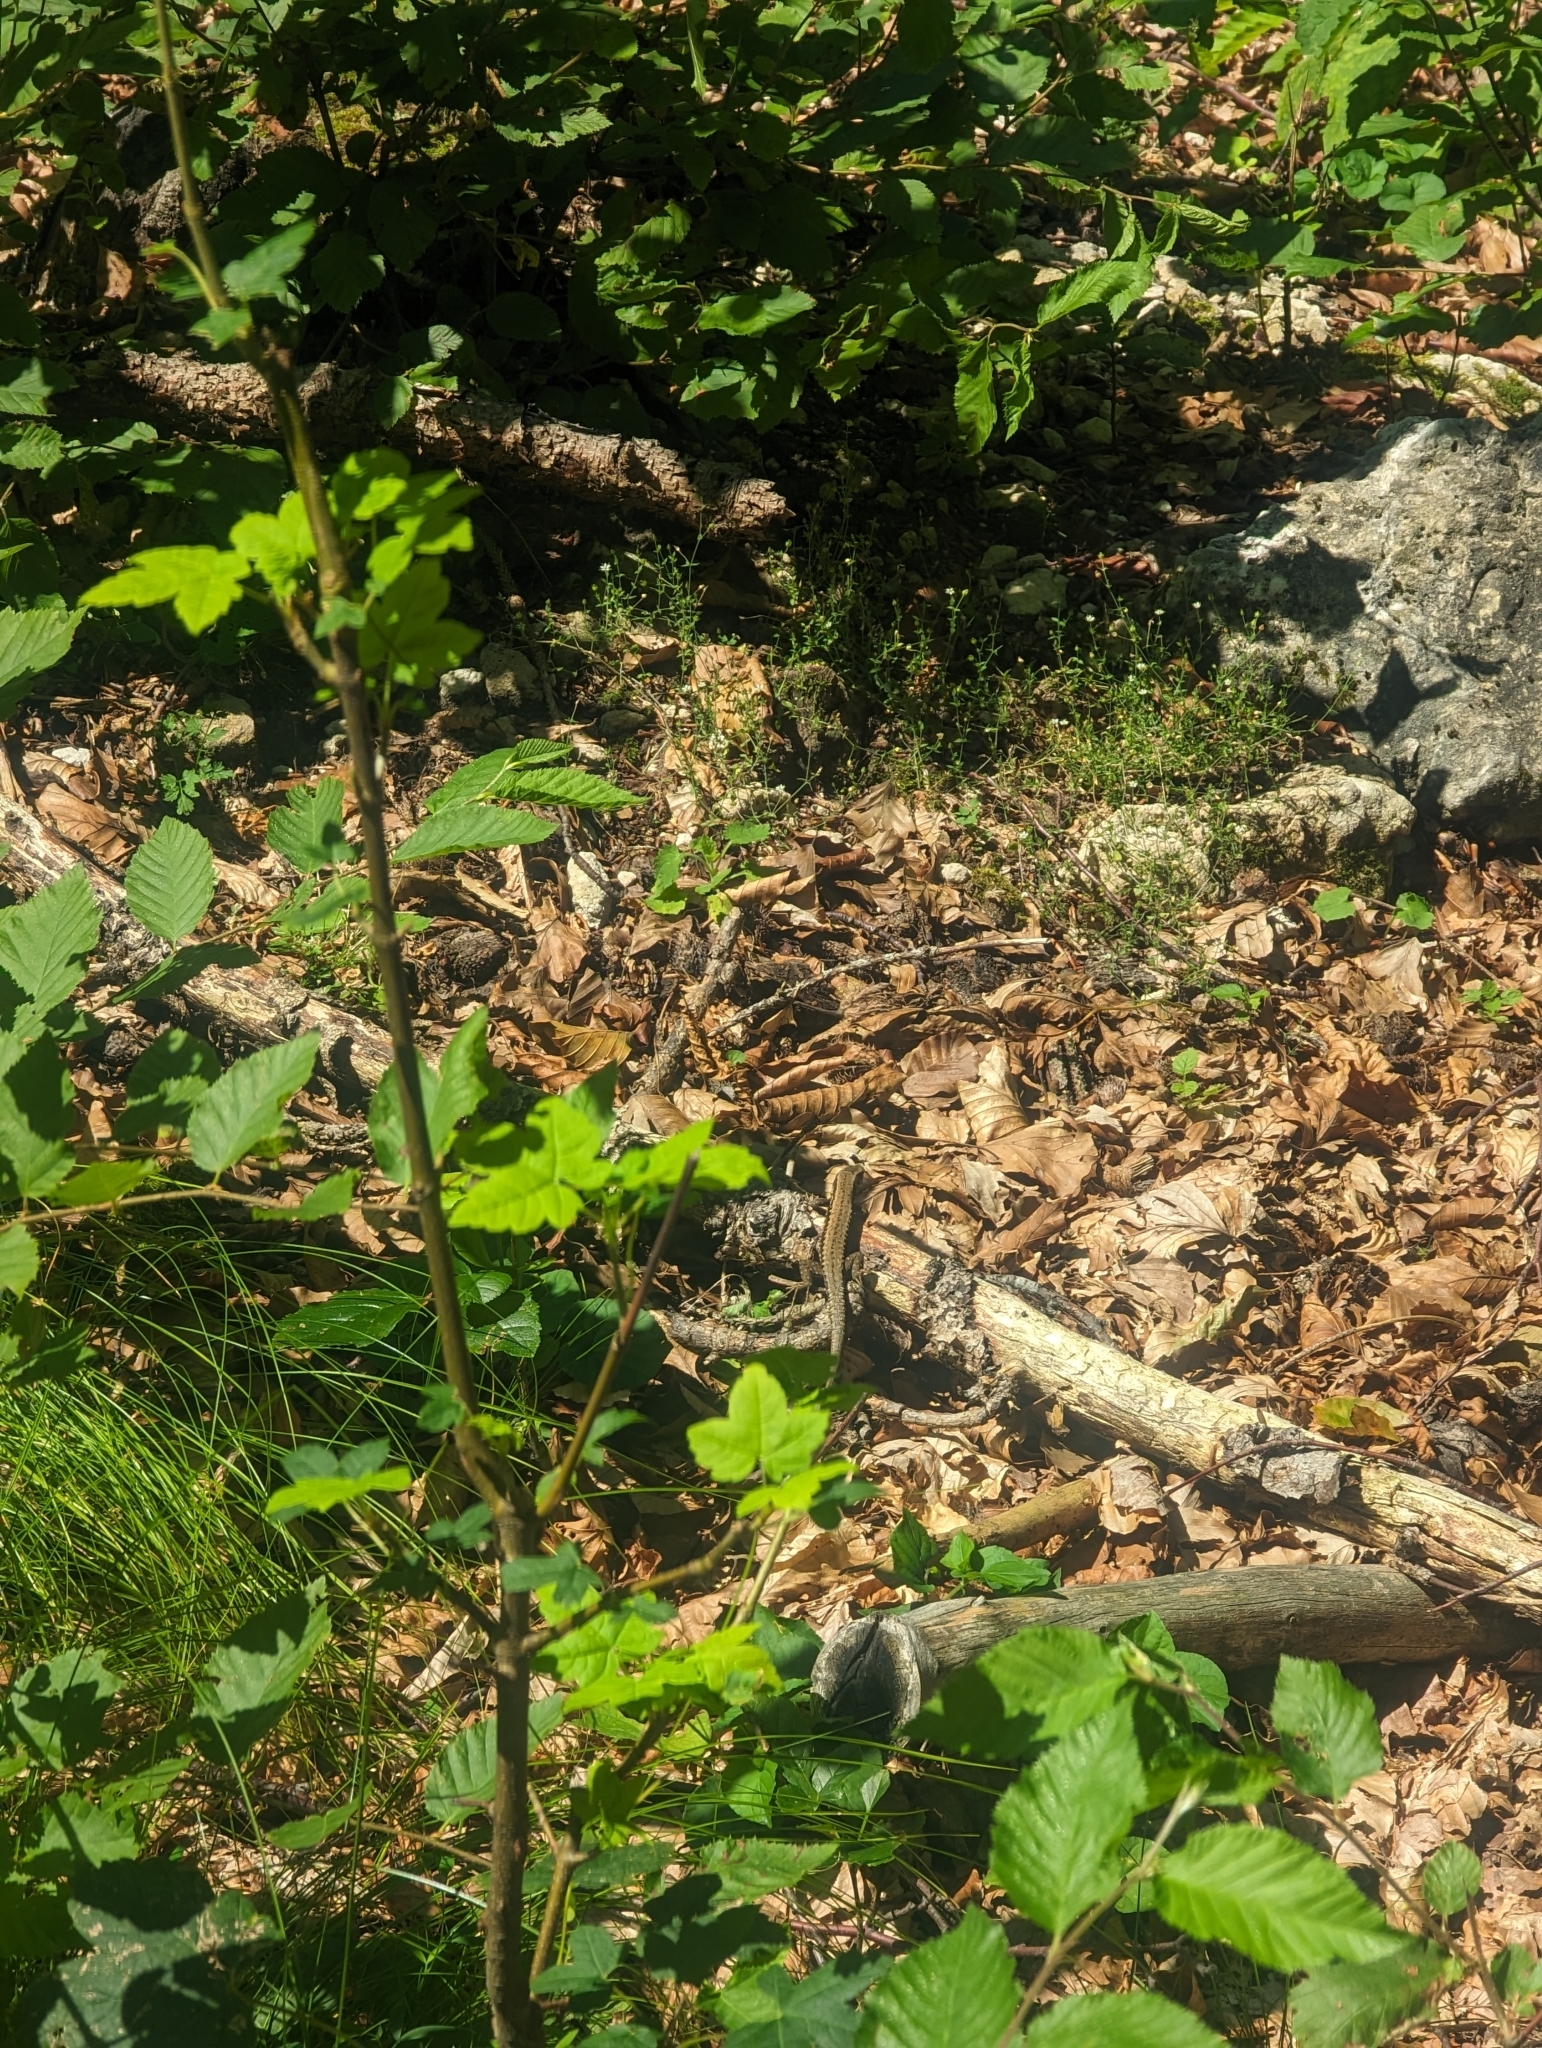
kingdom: Animalia
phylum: Chordata
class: Squamata
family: Lacertidae
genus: Podarcis
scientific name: Podarcis muralis
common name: Common wall lizard
